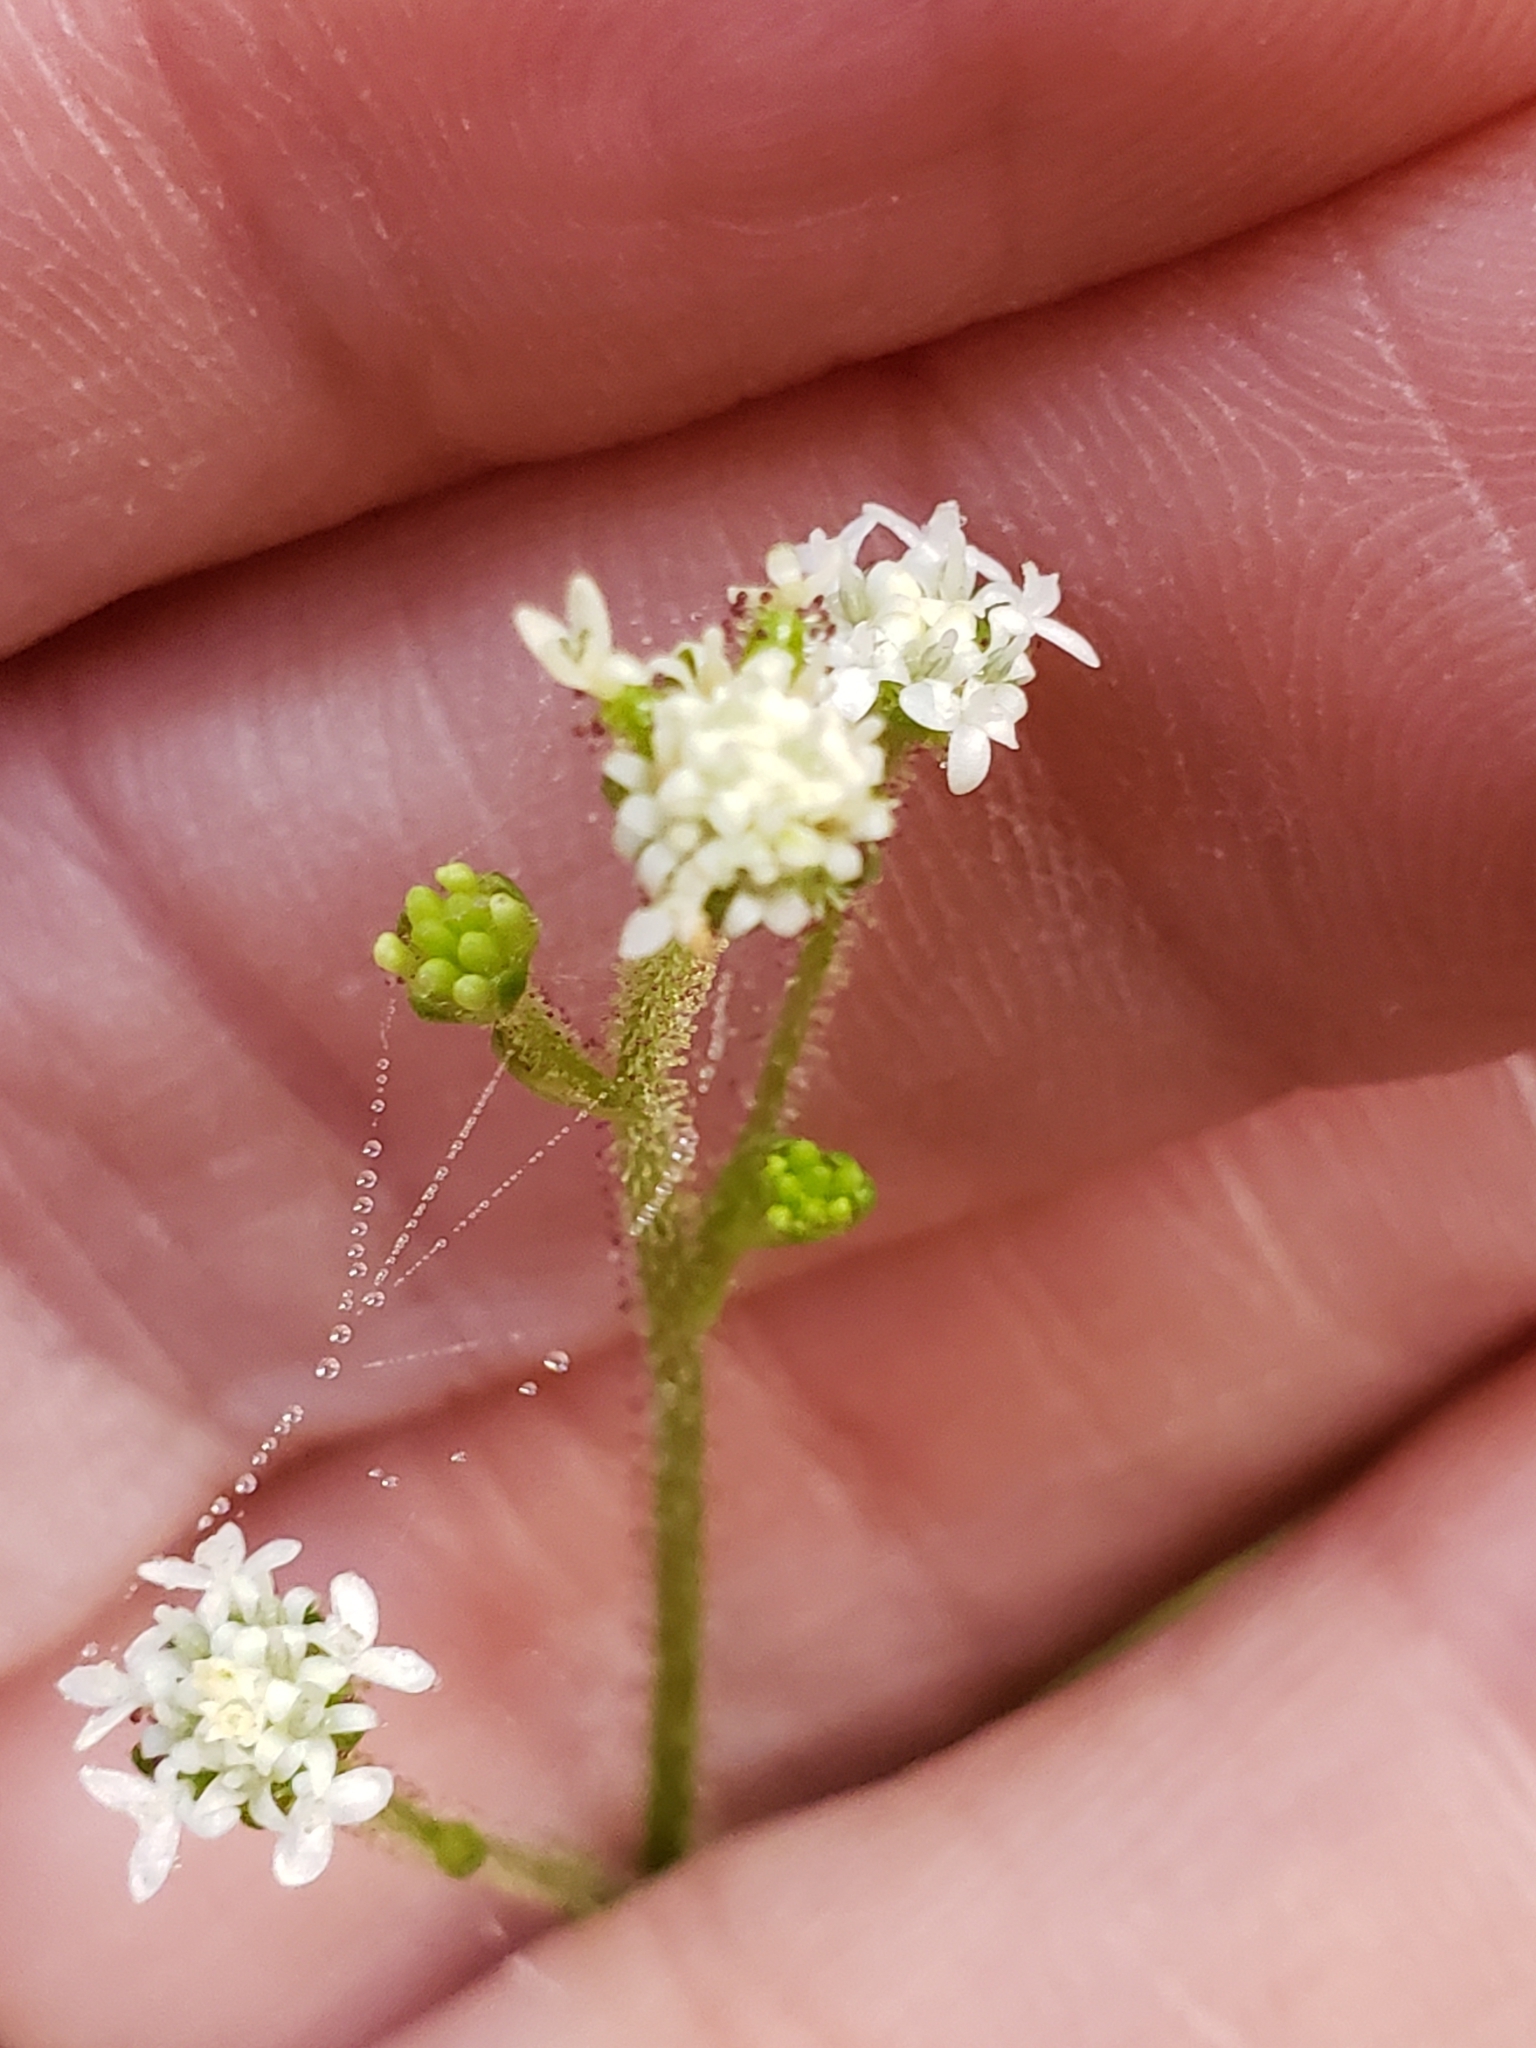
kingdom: Plantae
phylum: Tracheophyta
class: Magnoliopsida
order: Asterales
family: Asteraceae
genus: Adenocaulon
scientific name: Adenocaulon bicolor
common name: Trailplant
